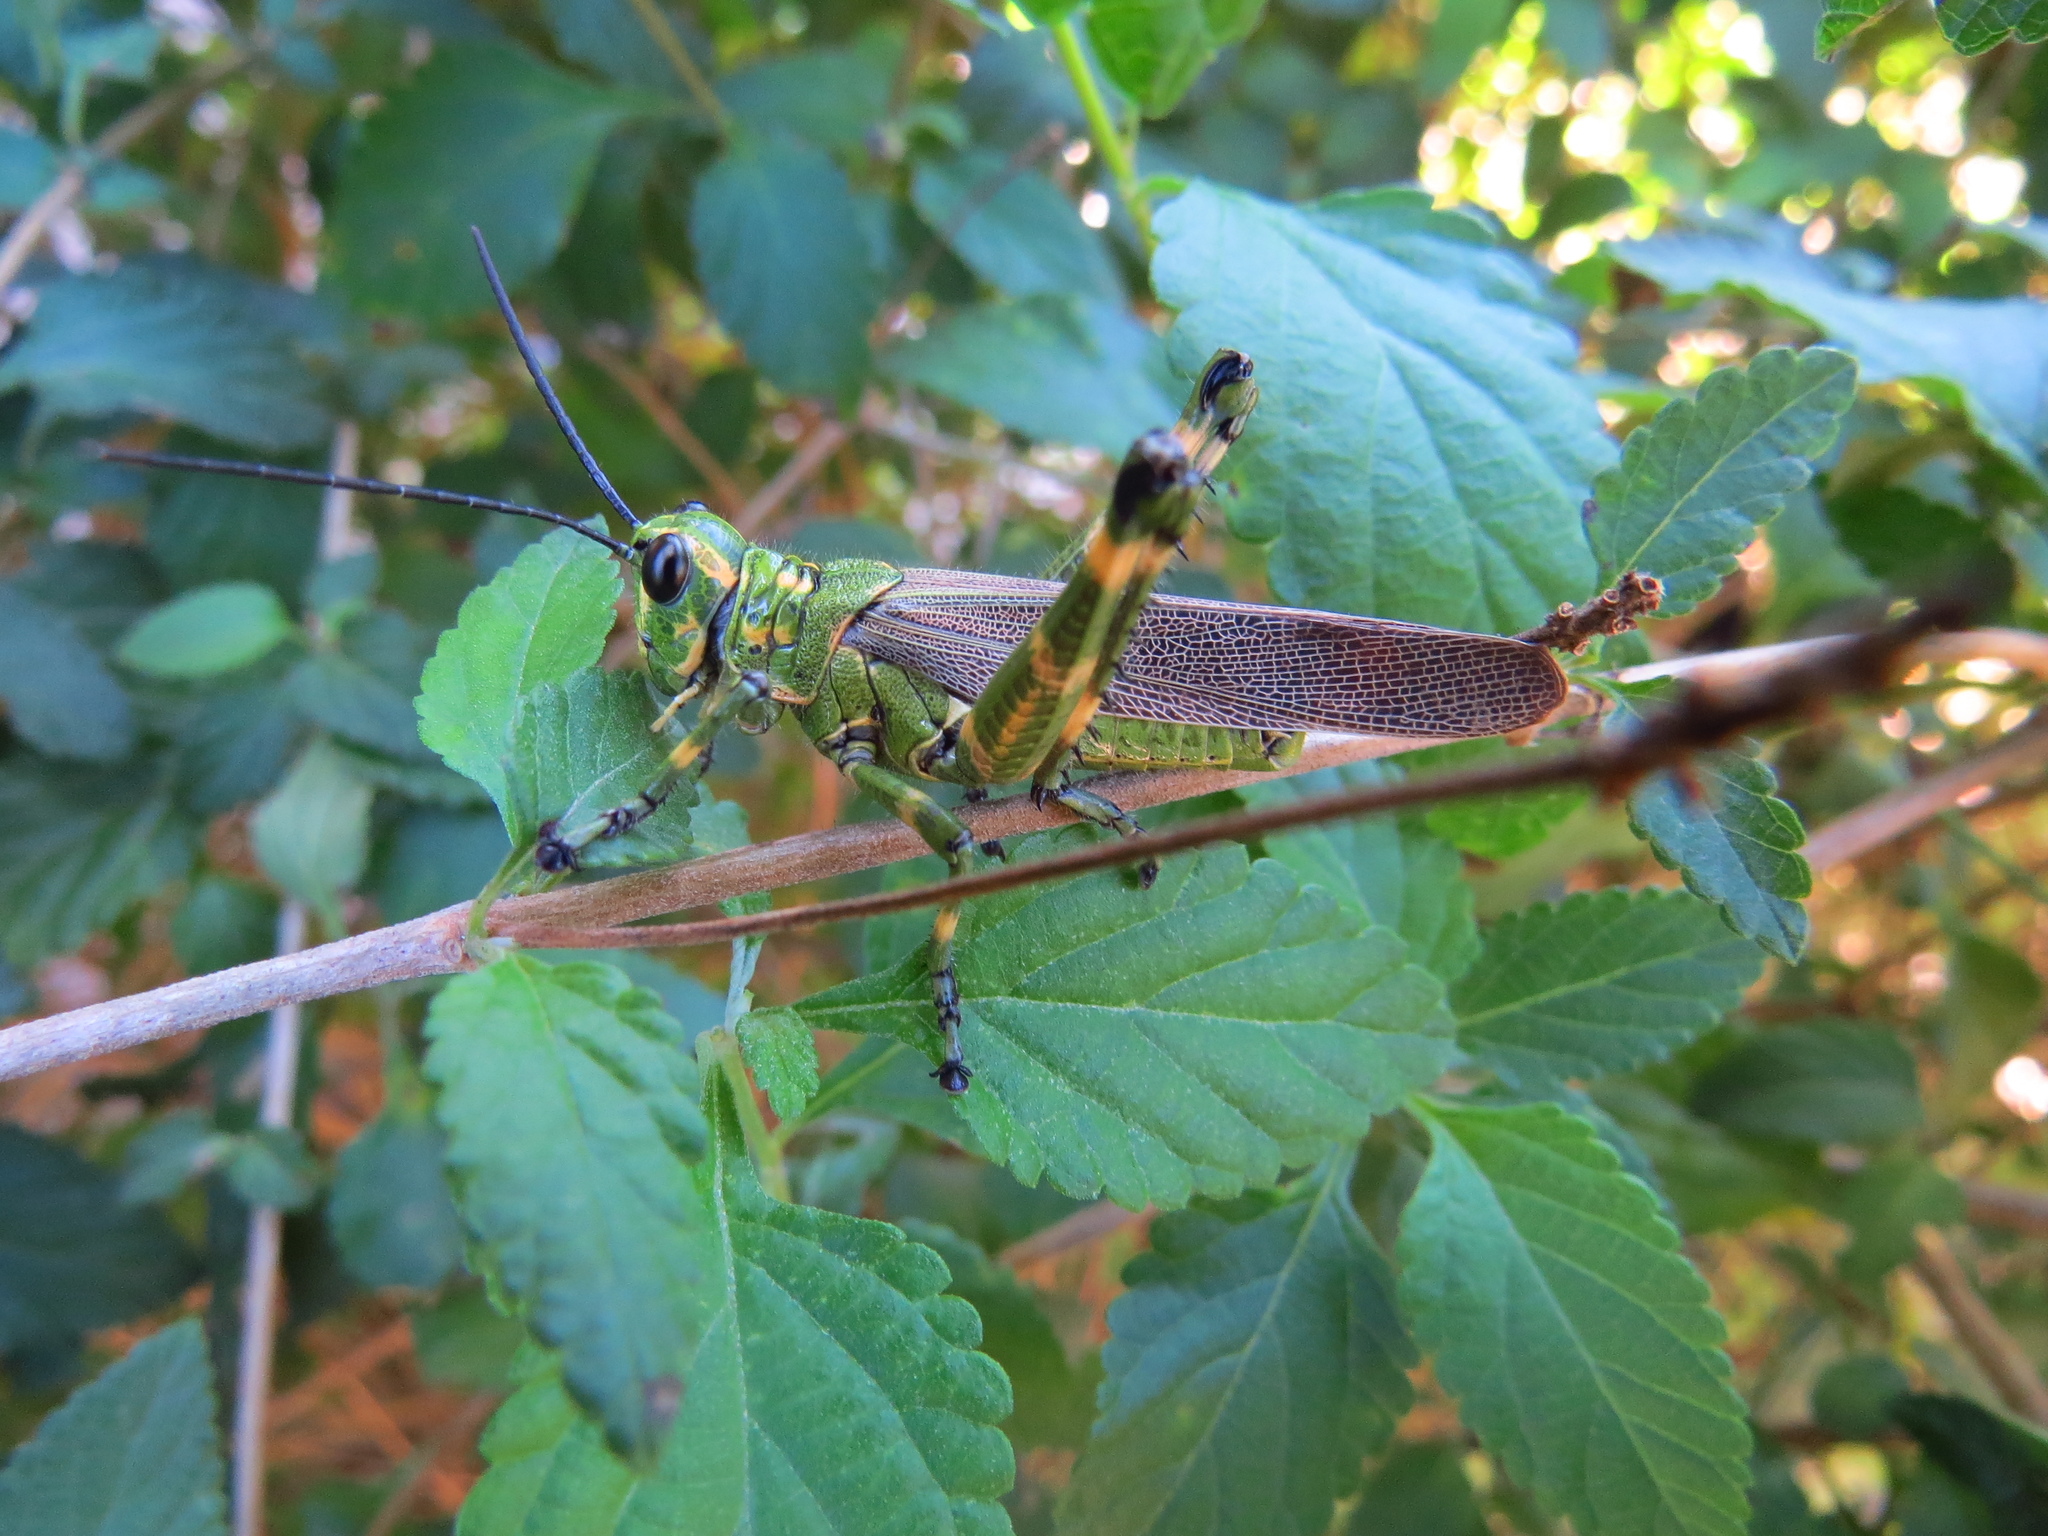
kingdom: Animalia
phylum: Arthropoda
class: Insecta
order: Orthoptera
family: Romaleidae
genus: Chromacris
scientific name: Chromacris speciosa
